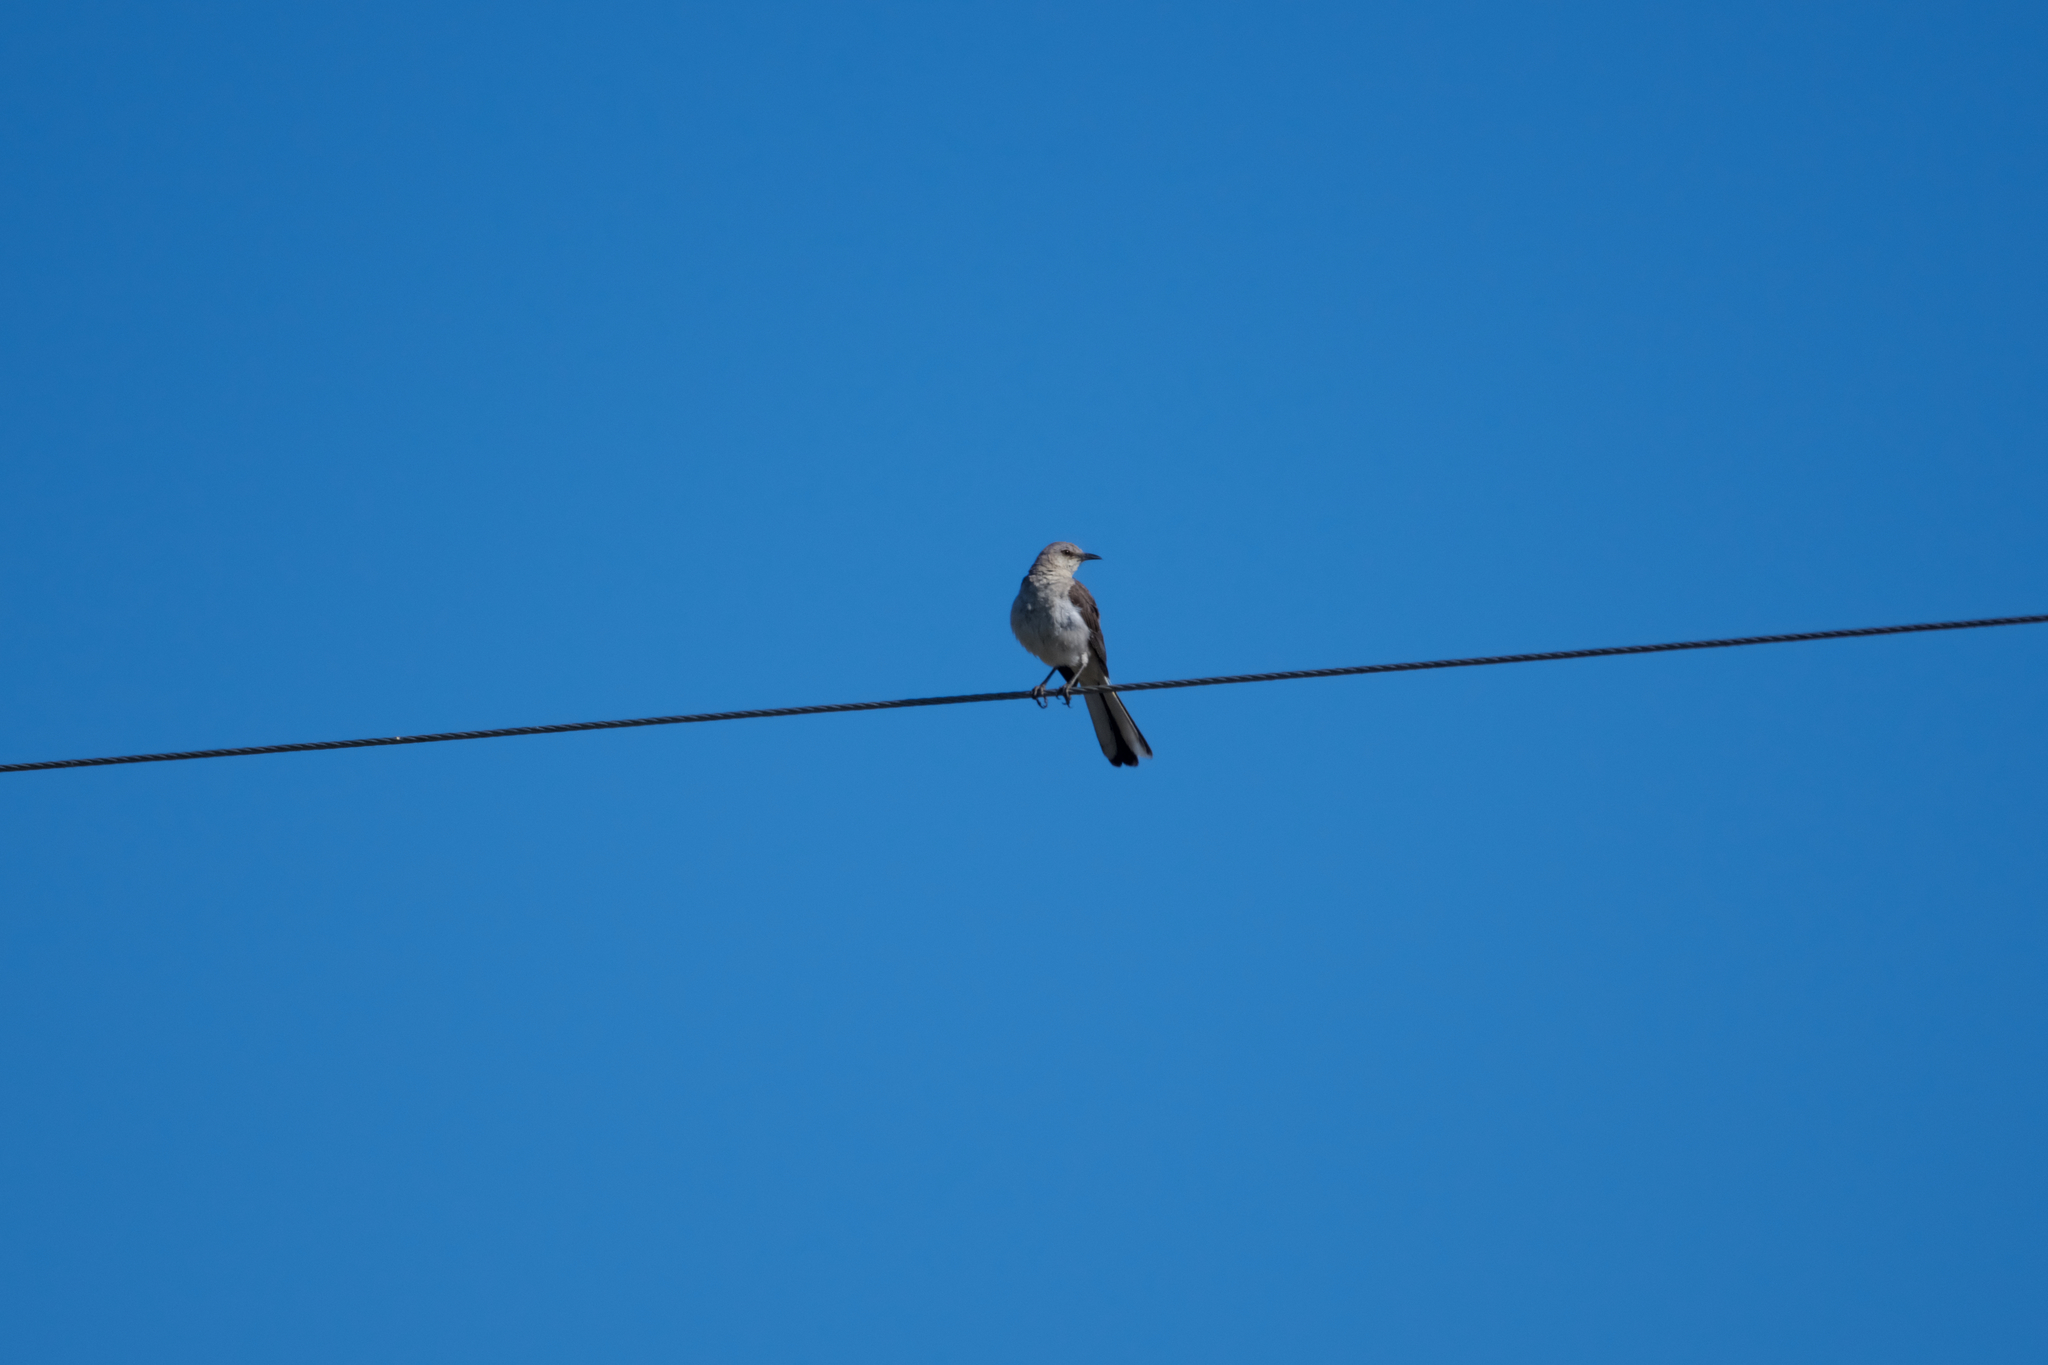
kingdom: Animalia
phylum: Chordata
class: Aves
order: Passeriformes
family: Mimidae
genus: Mimus
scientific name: Mimus polyglottos
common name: Northern mockingbird
